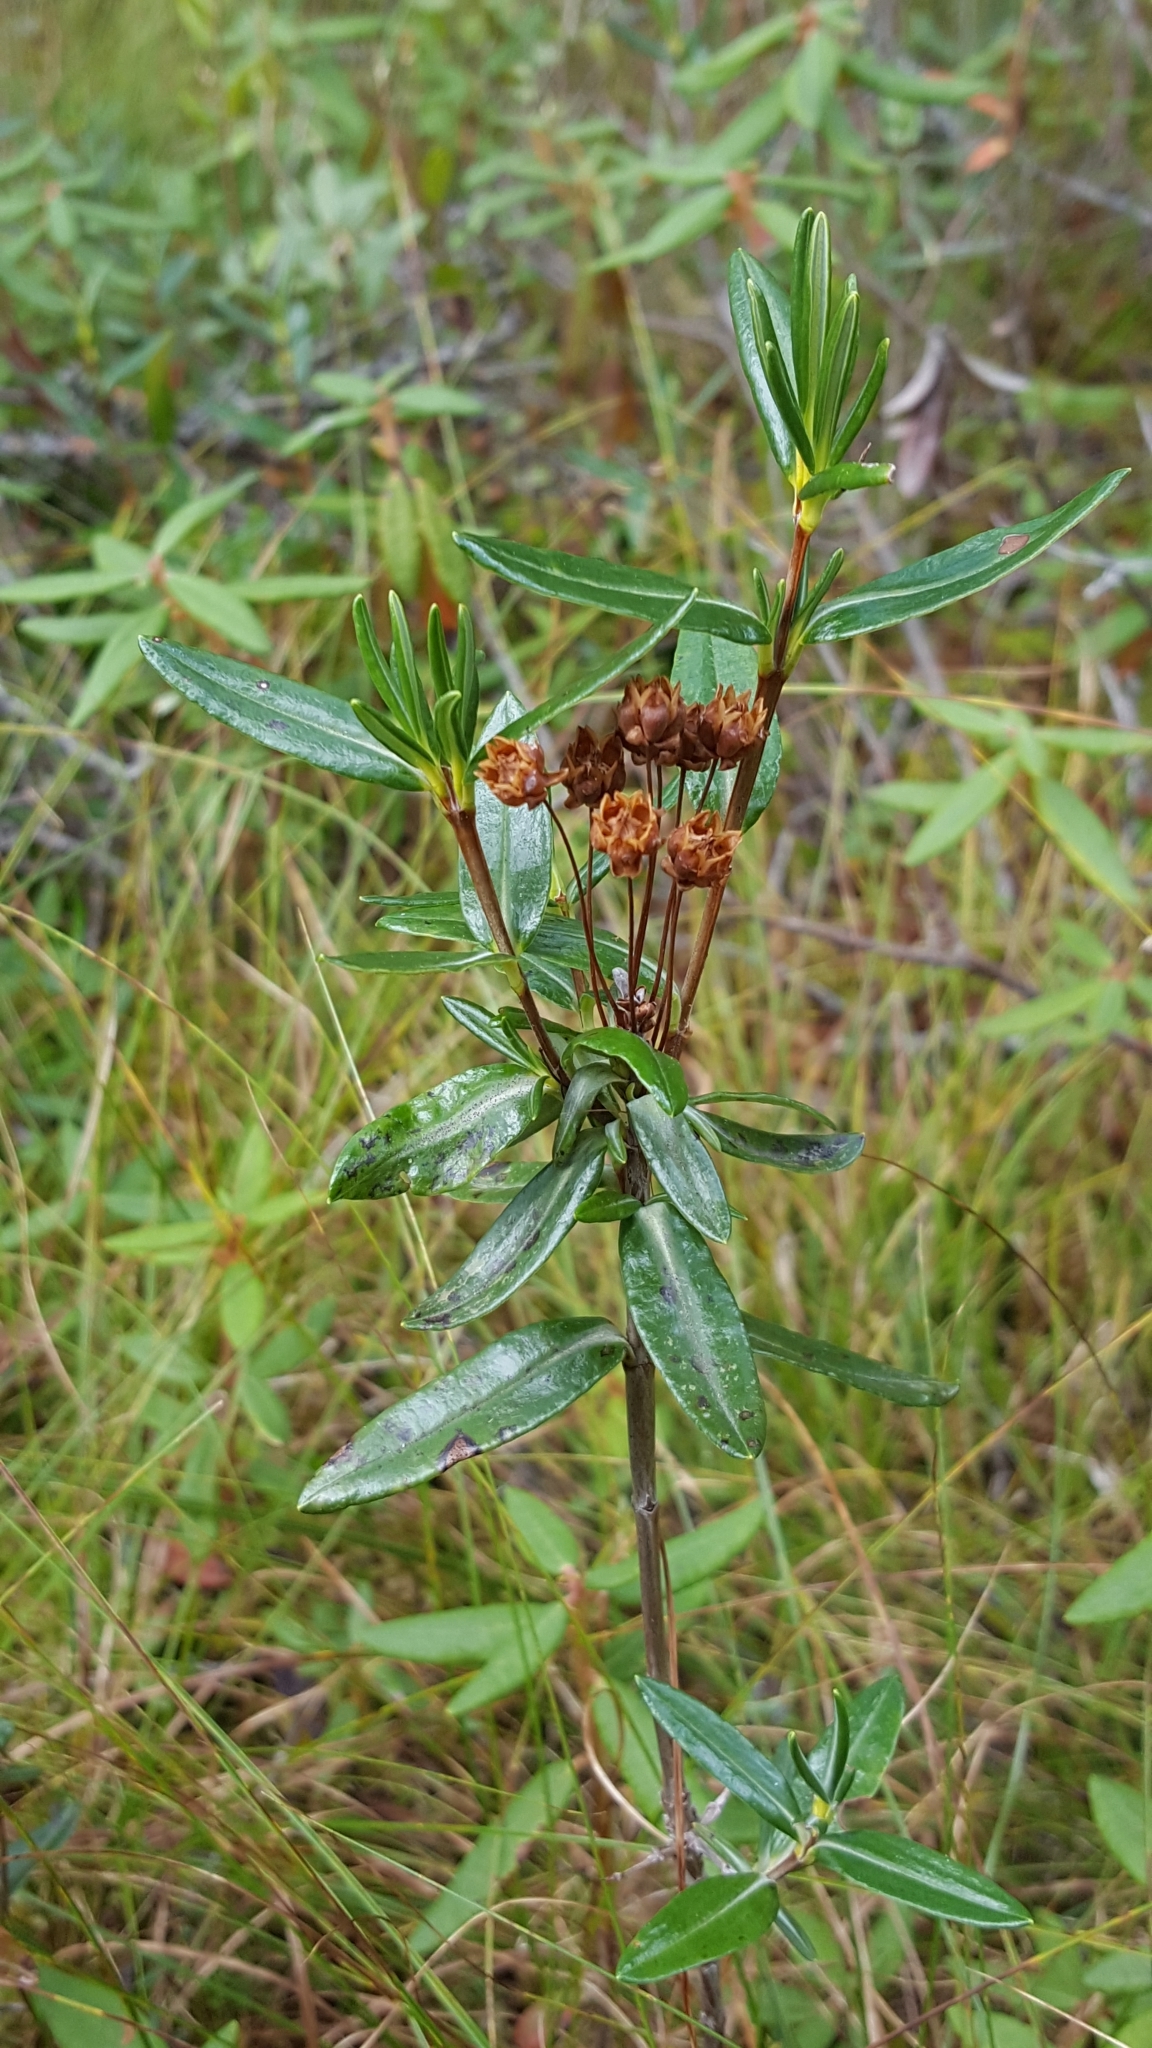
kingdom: Plantae
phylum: Tracheophyta
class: Magnoliopsida
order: Ericales
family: Ericaceae
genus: Kalmia
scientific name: Kalmia polifolia
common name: Bog-laurel
